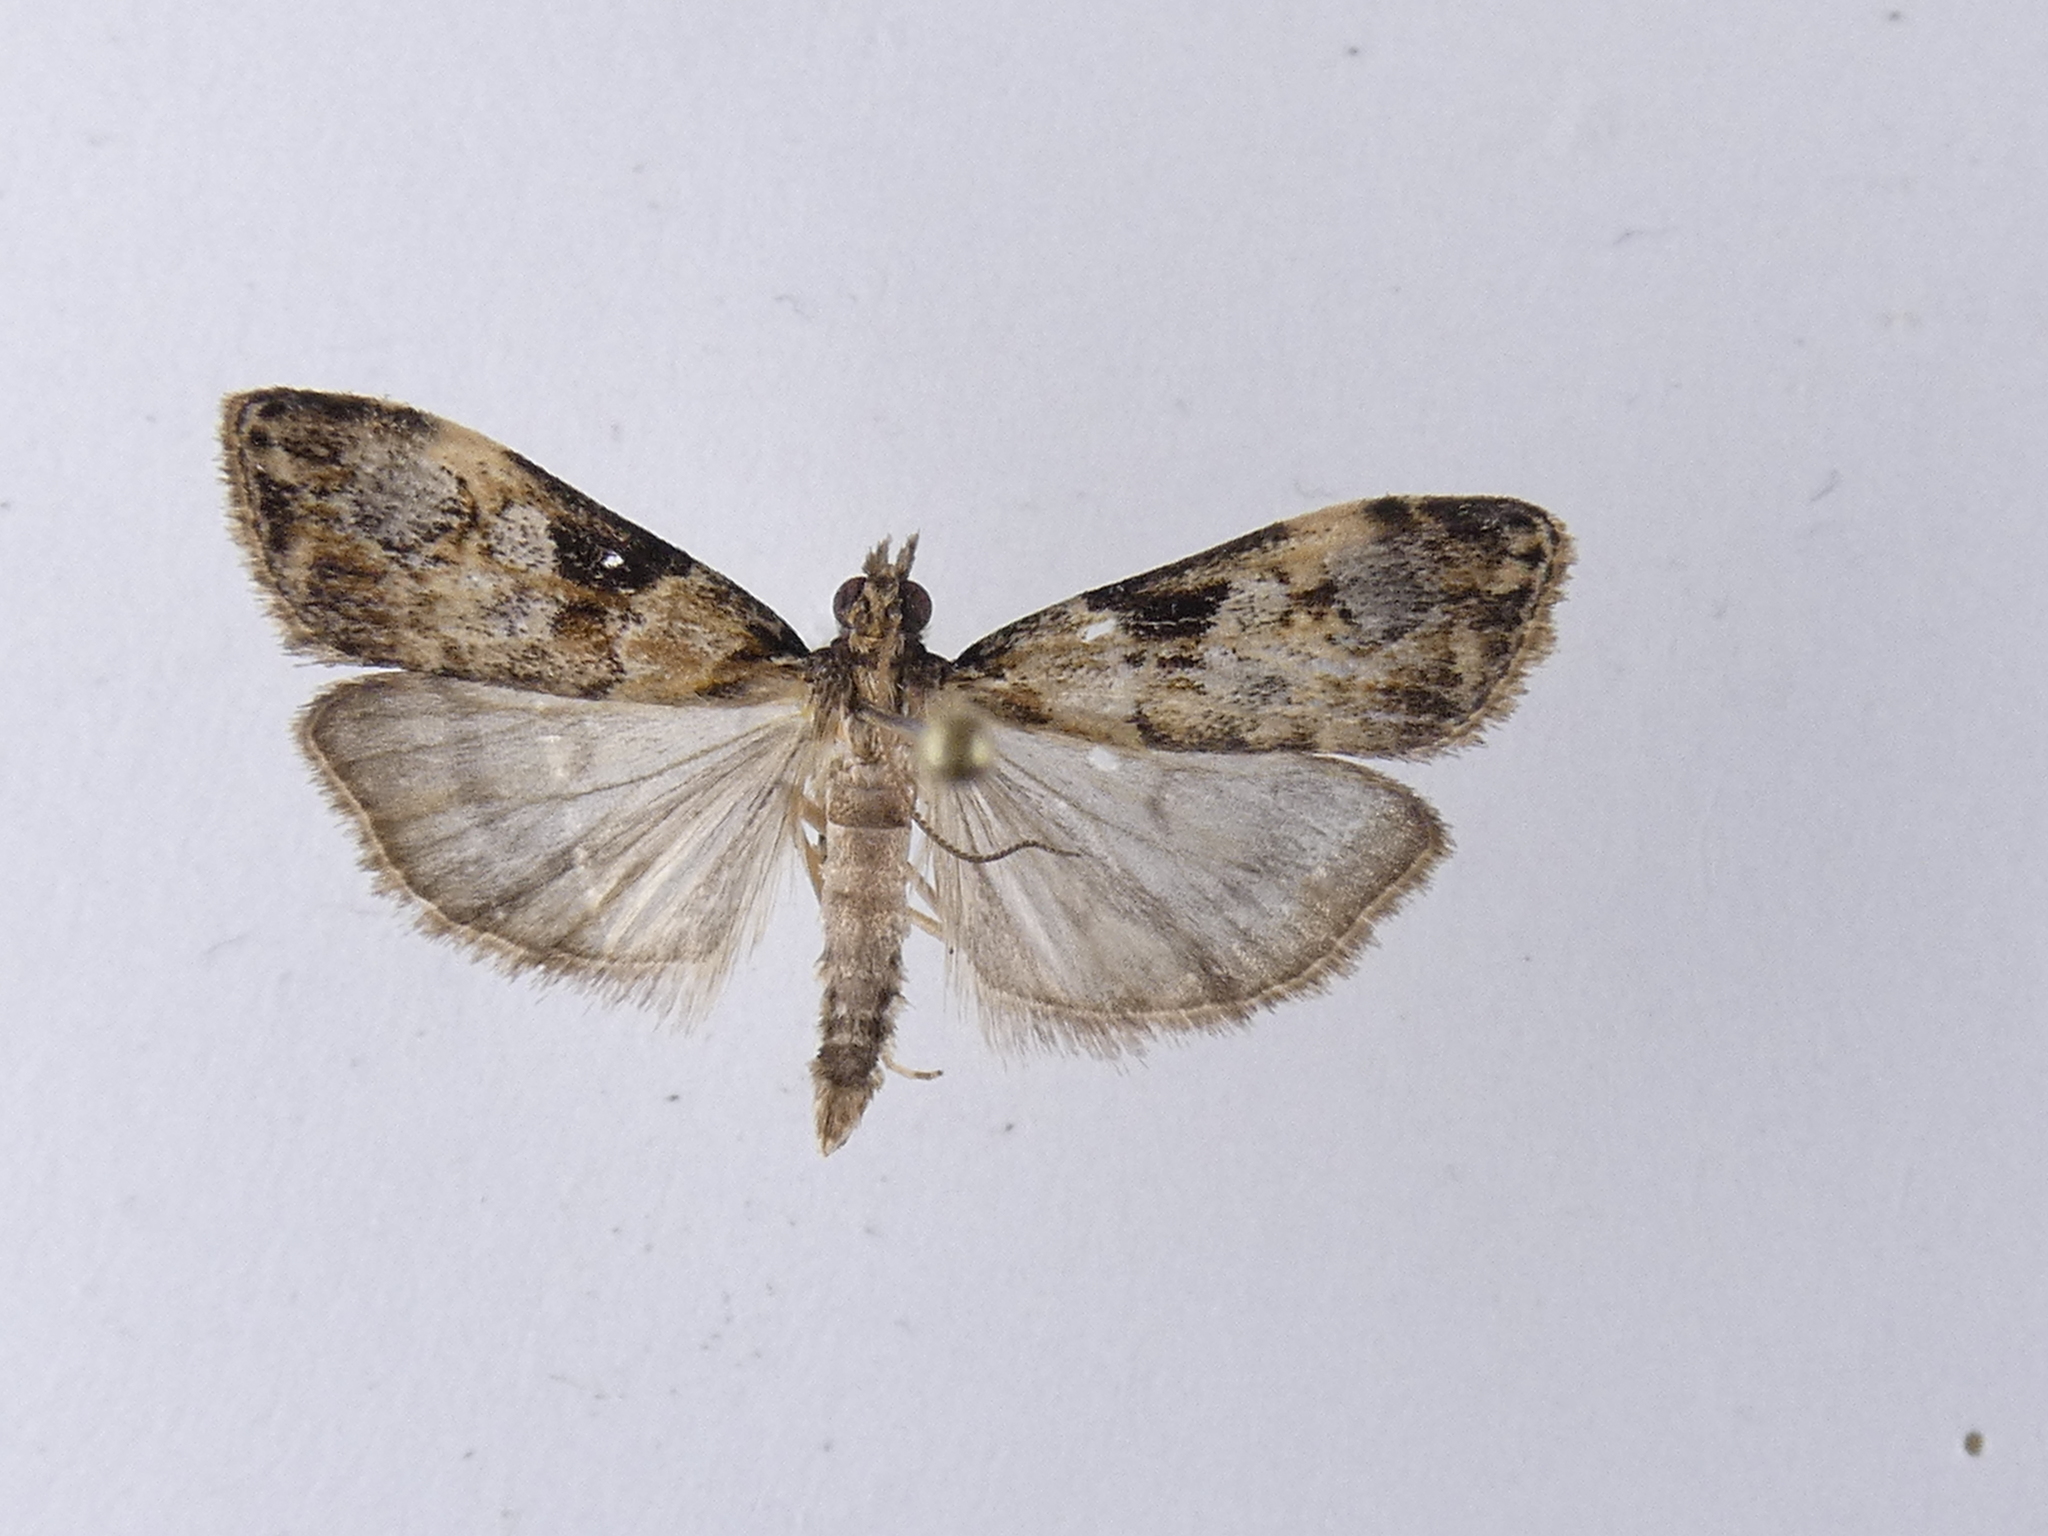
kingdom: Animalia
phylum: Arthropoda
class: Insecta
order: Lepidoptera
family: Crambidae
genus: Scoparia
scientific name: Scoparia acharis
